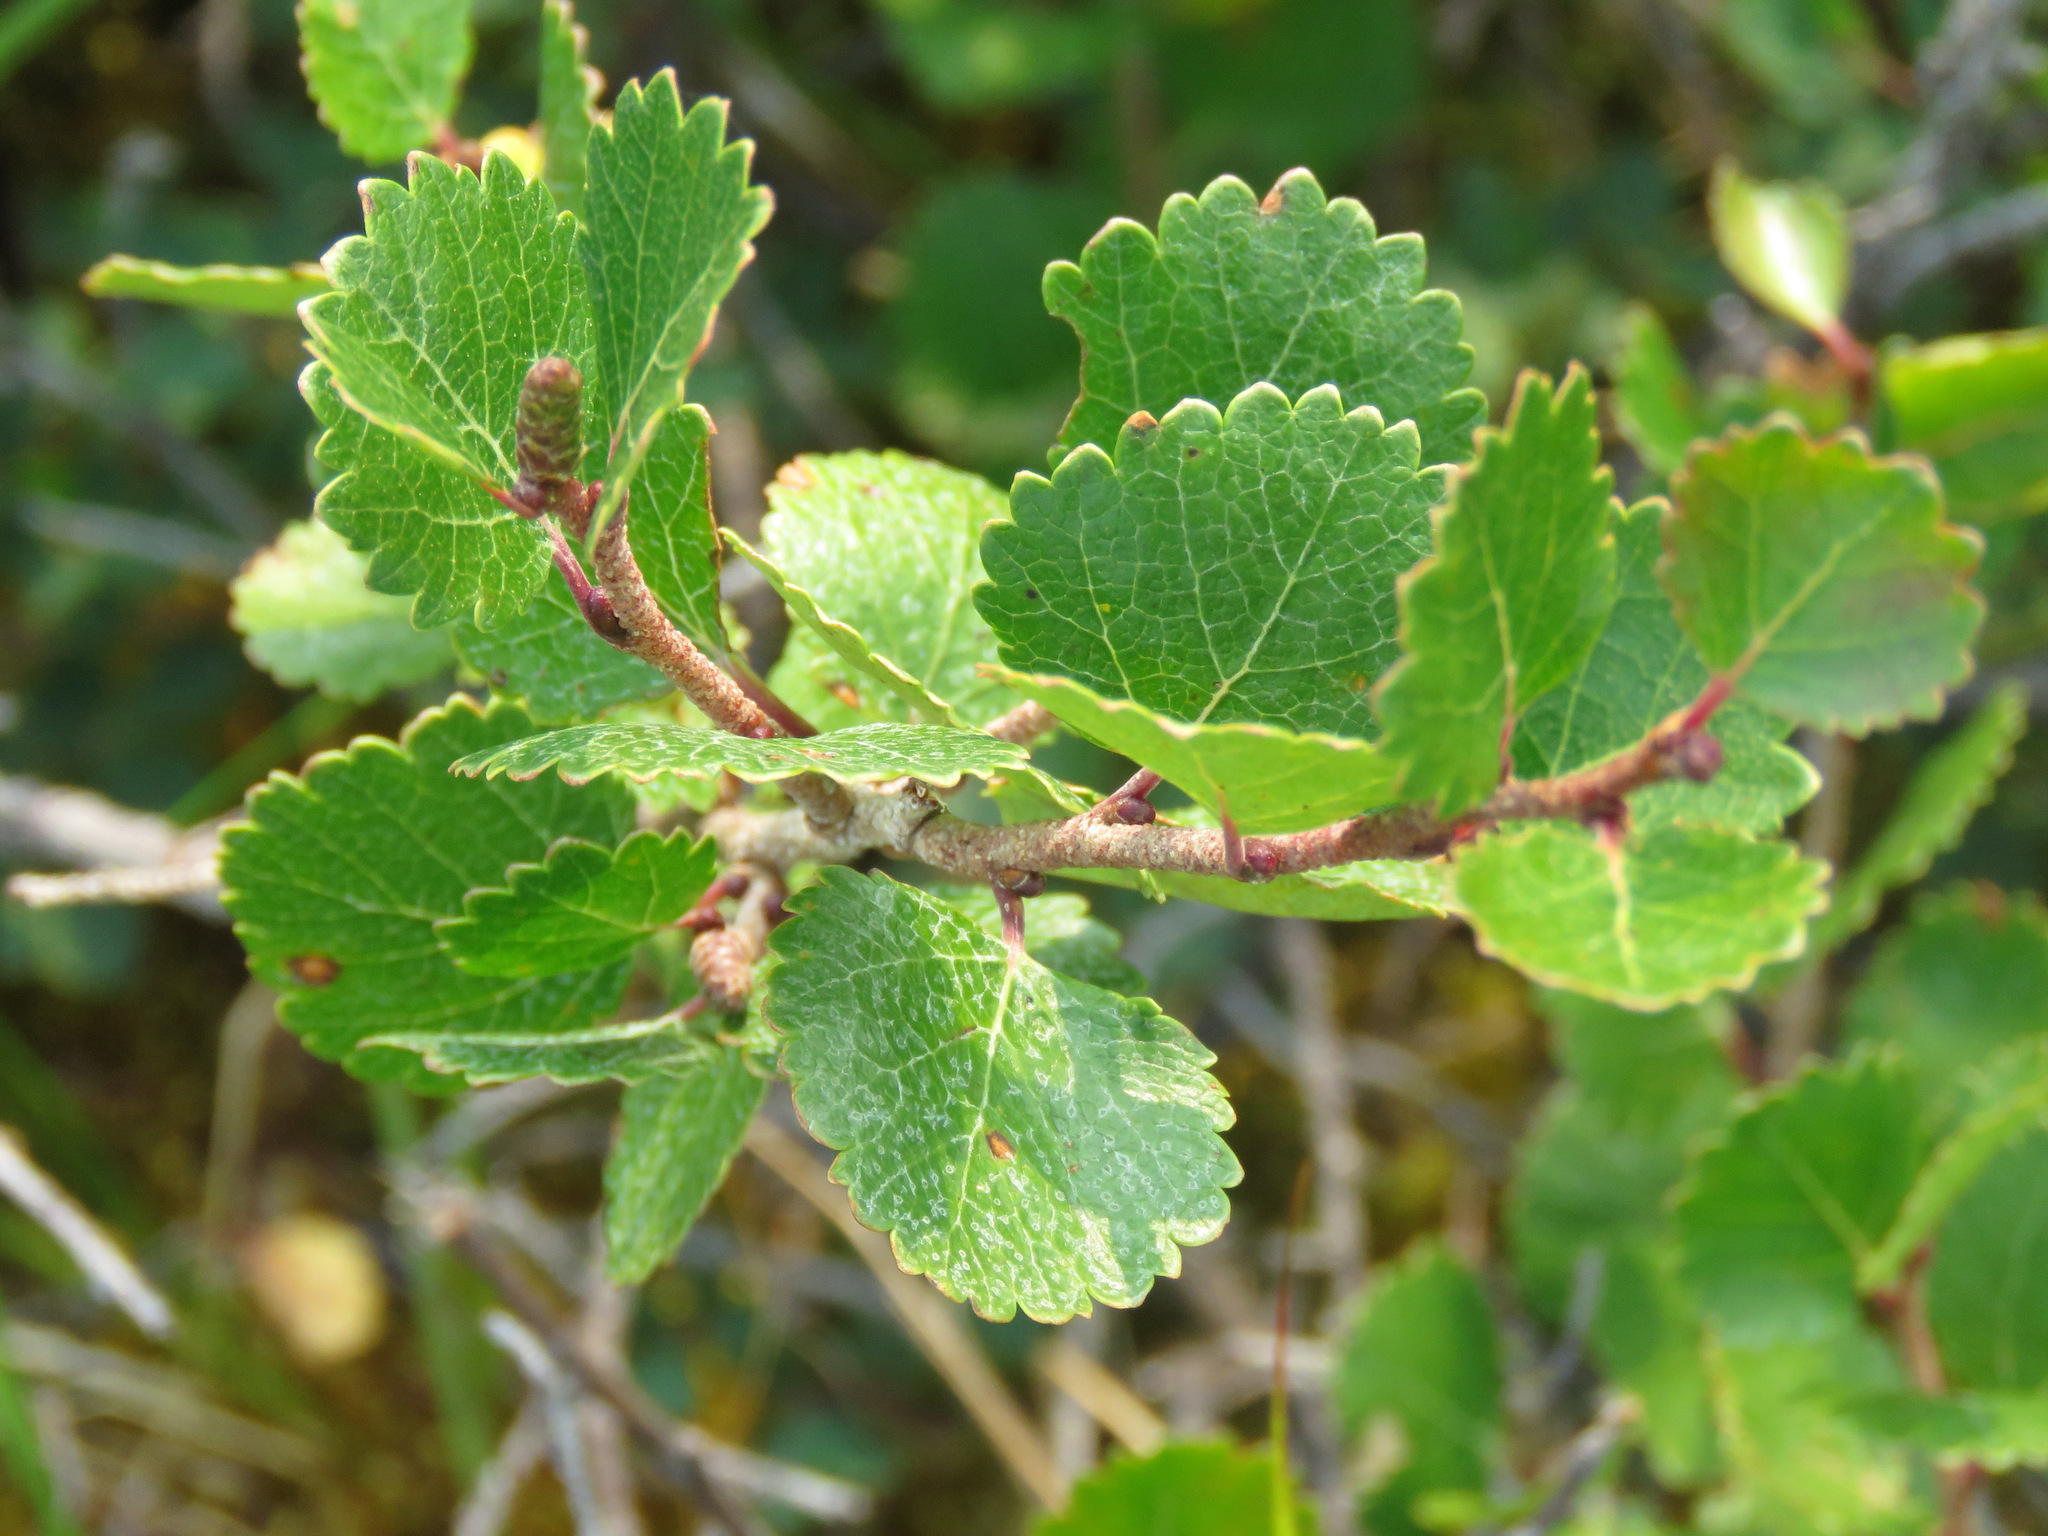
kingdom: Plantae
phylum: Tracheophyta
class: Magnoliopsida
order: Fagales
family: Betulaceae
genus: Betula
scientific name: Betula glandulosa
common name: Dwarf birch
